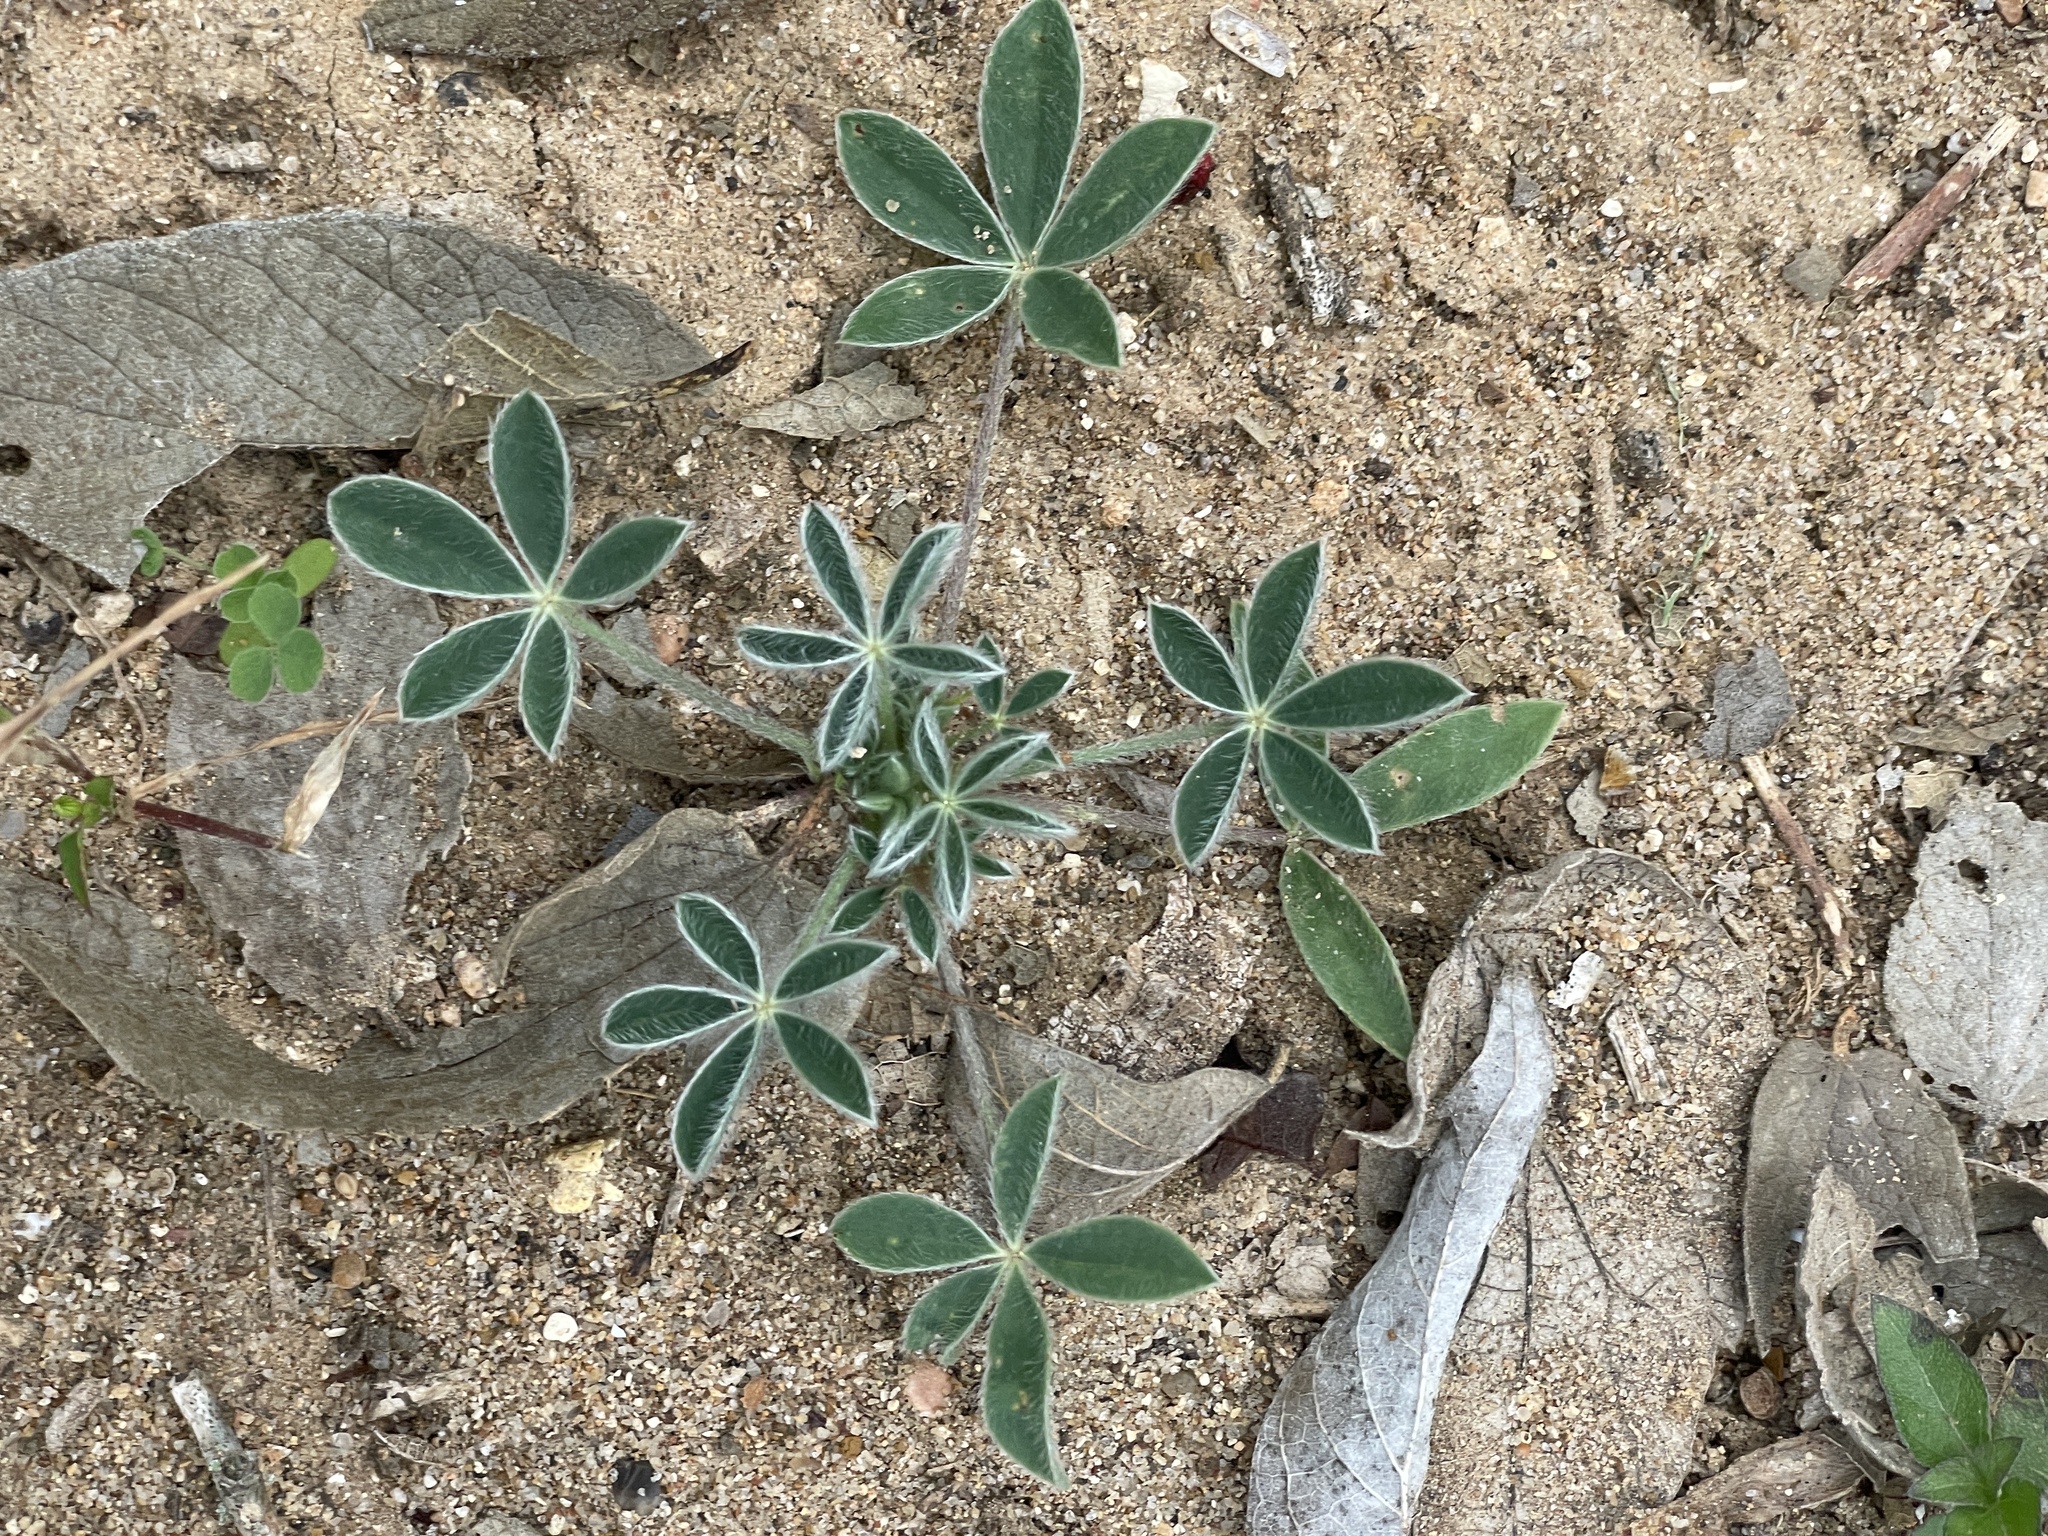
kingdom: Plantae
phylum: Tracheophyta
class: Magnoliopsida
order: Fabales
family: Fabaceae
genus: Lupinus
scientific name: Lupinus texensis
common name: Texas bluebonnet
